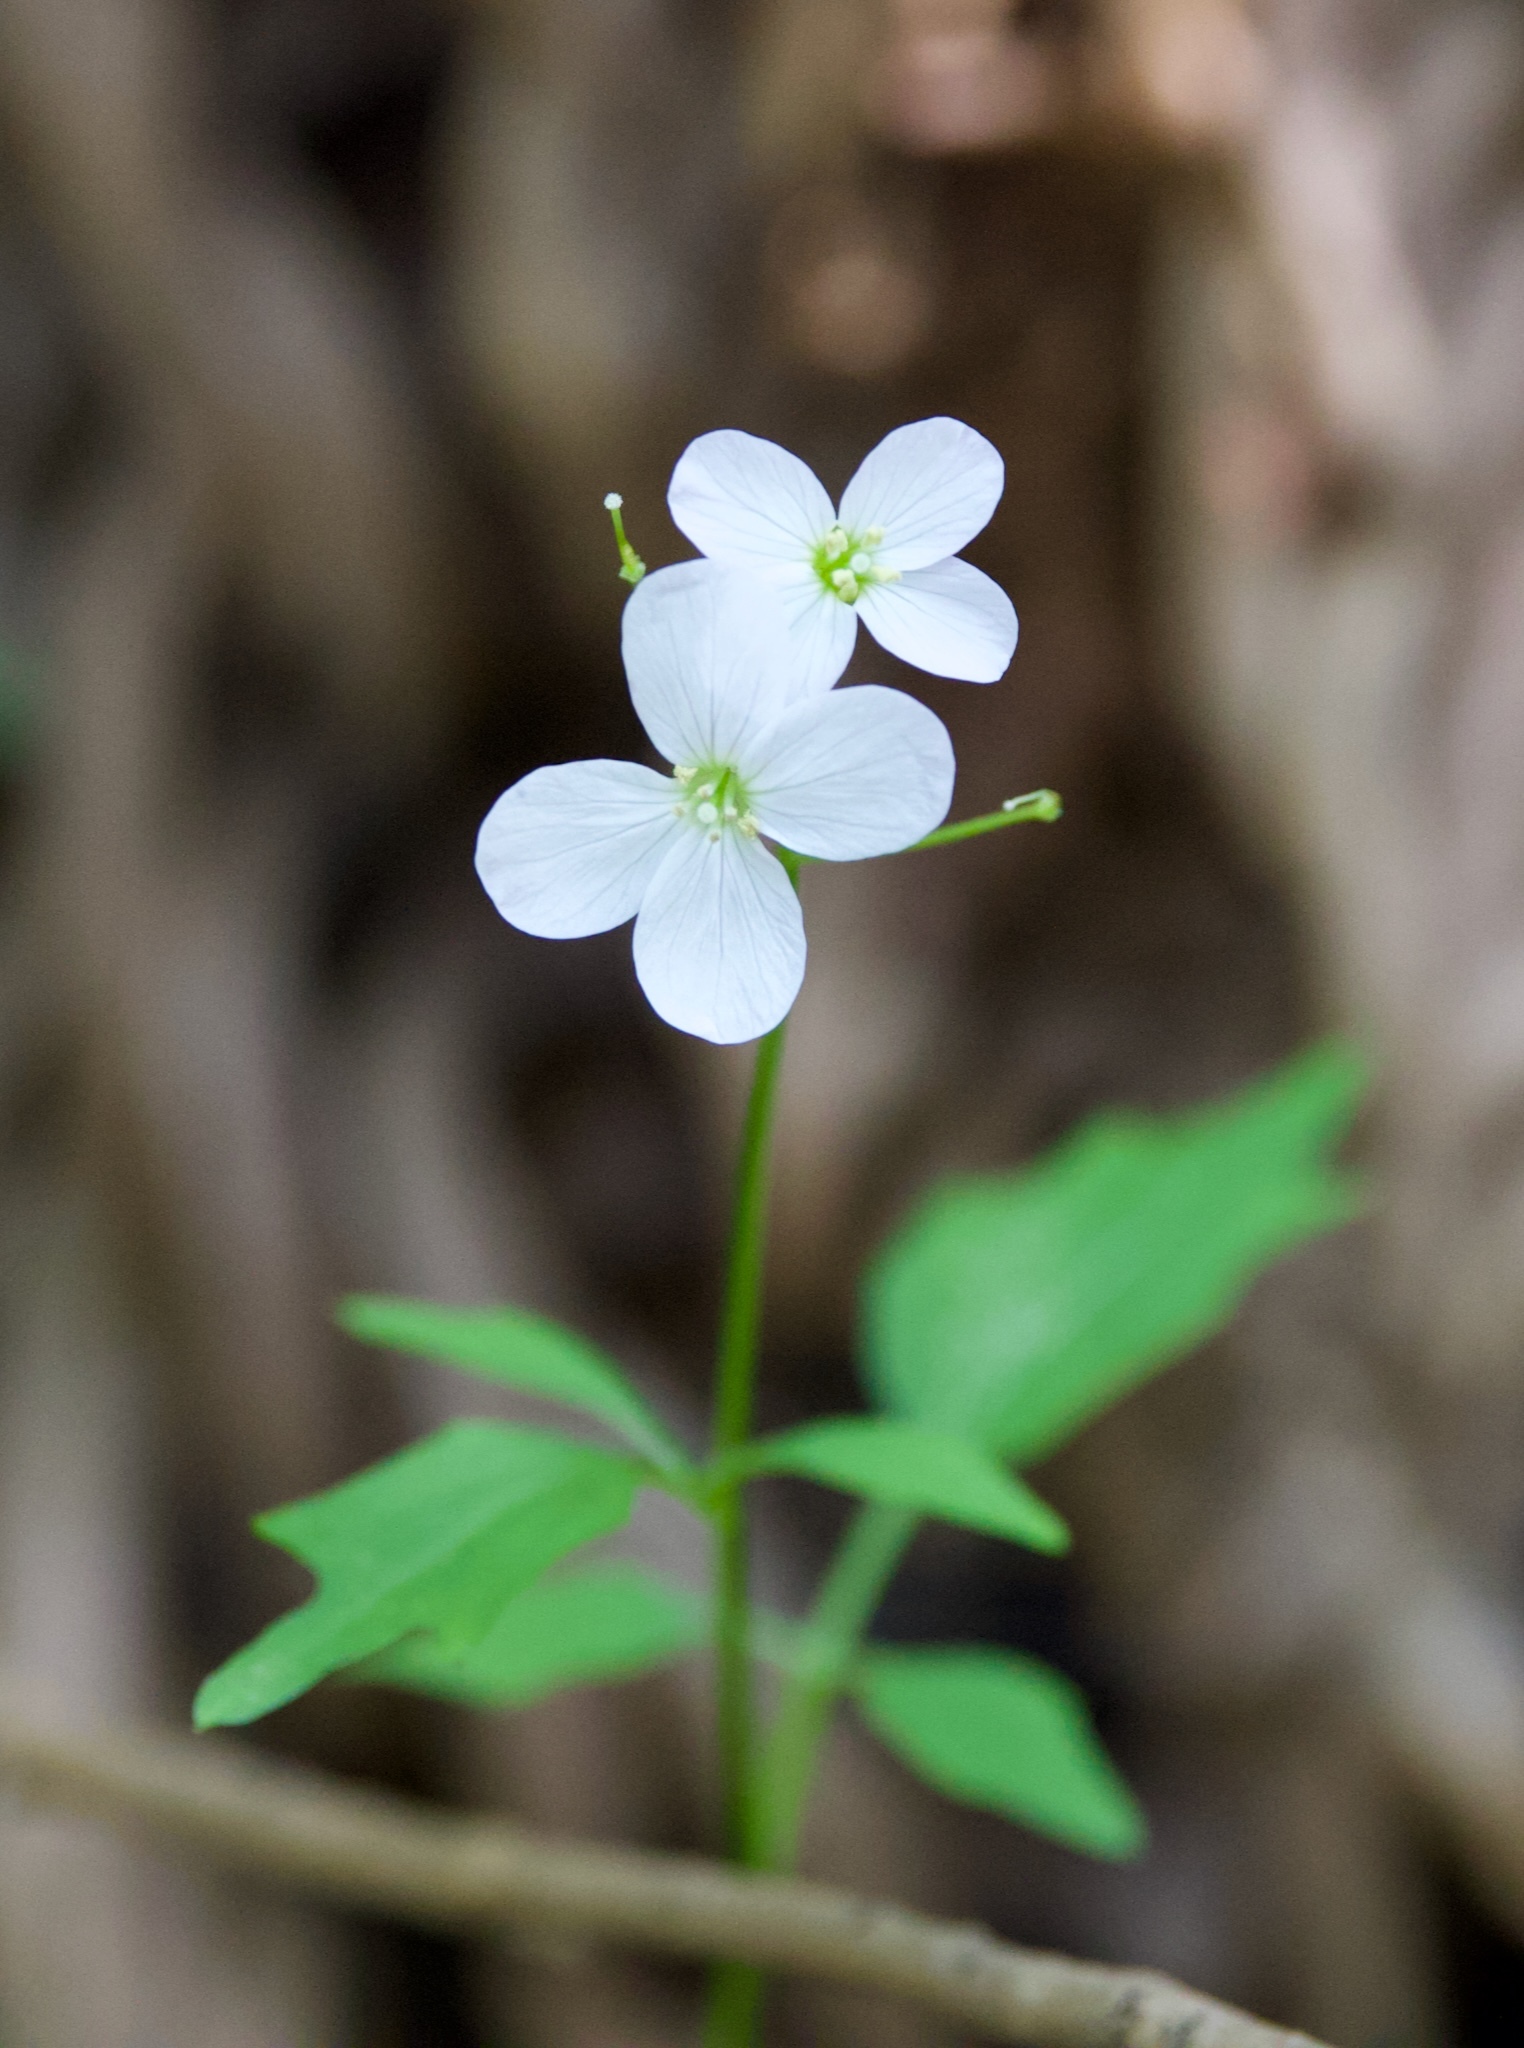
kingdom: Plantae
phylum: Tracheophyta
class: Magnoliopsida
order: Brassicales
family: Brassicaceae
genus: Cardamine
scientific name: Cardamine californica
